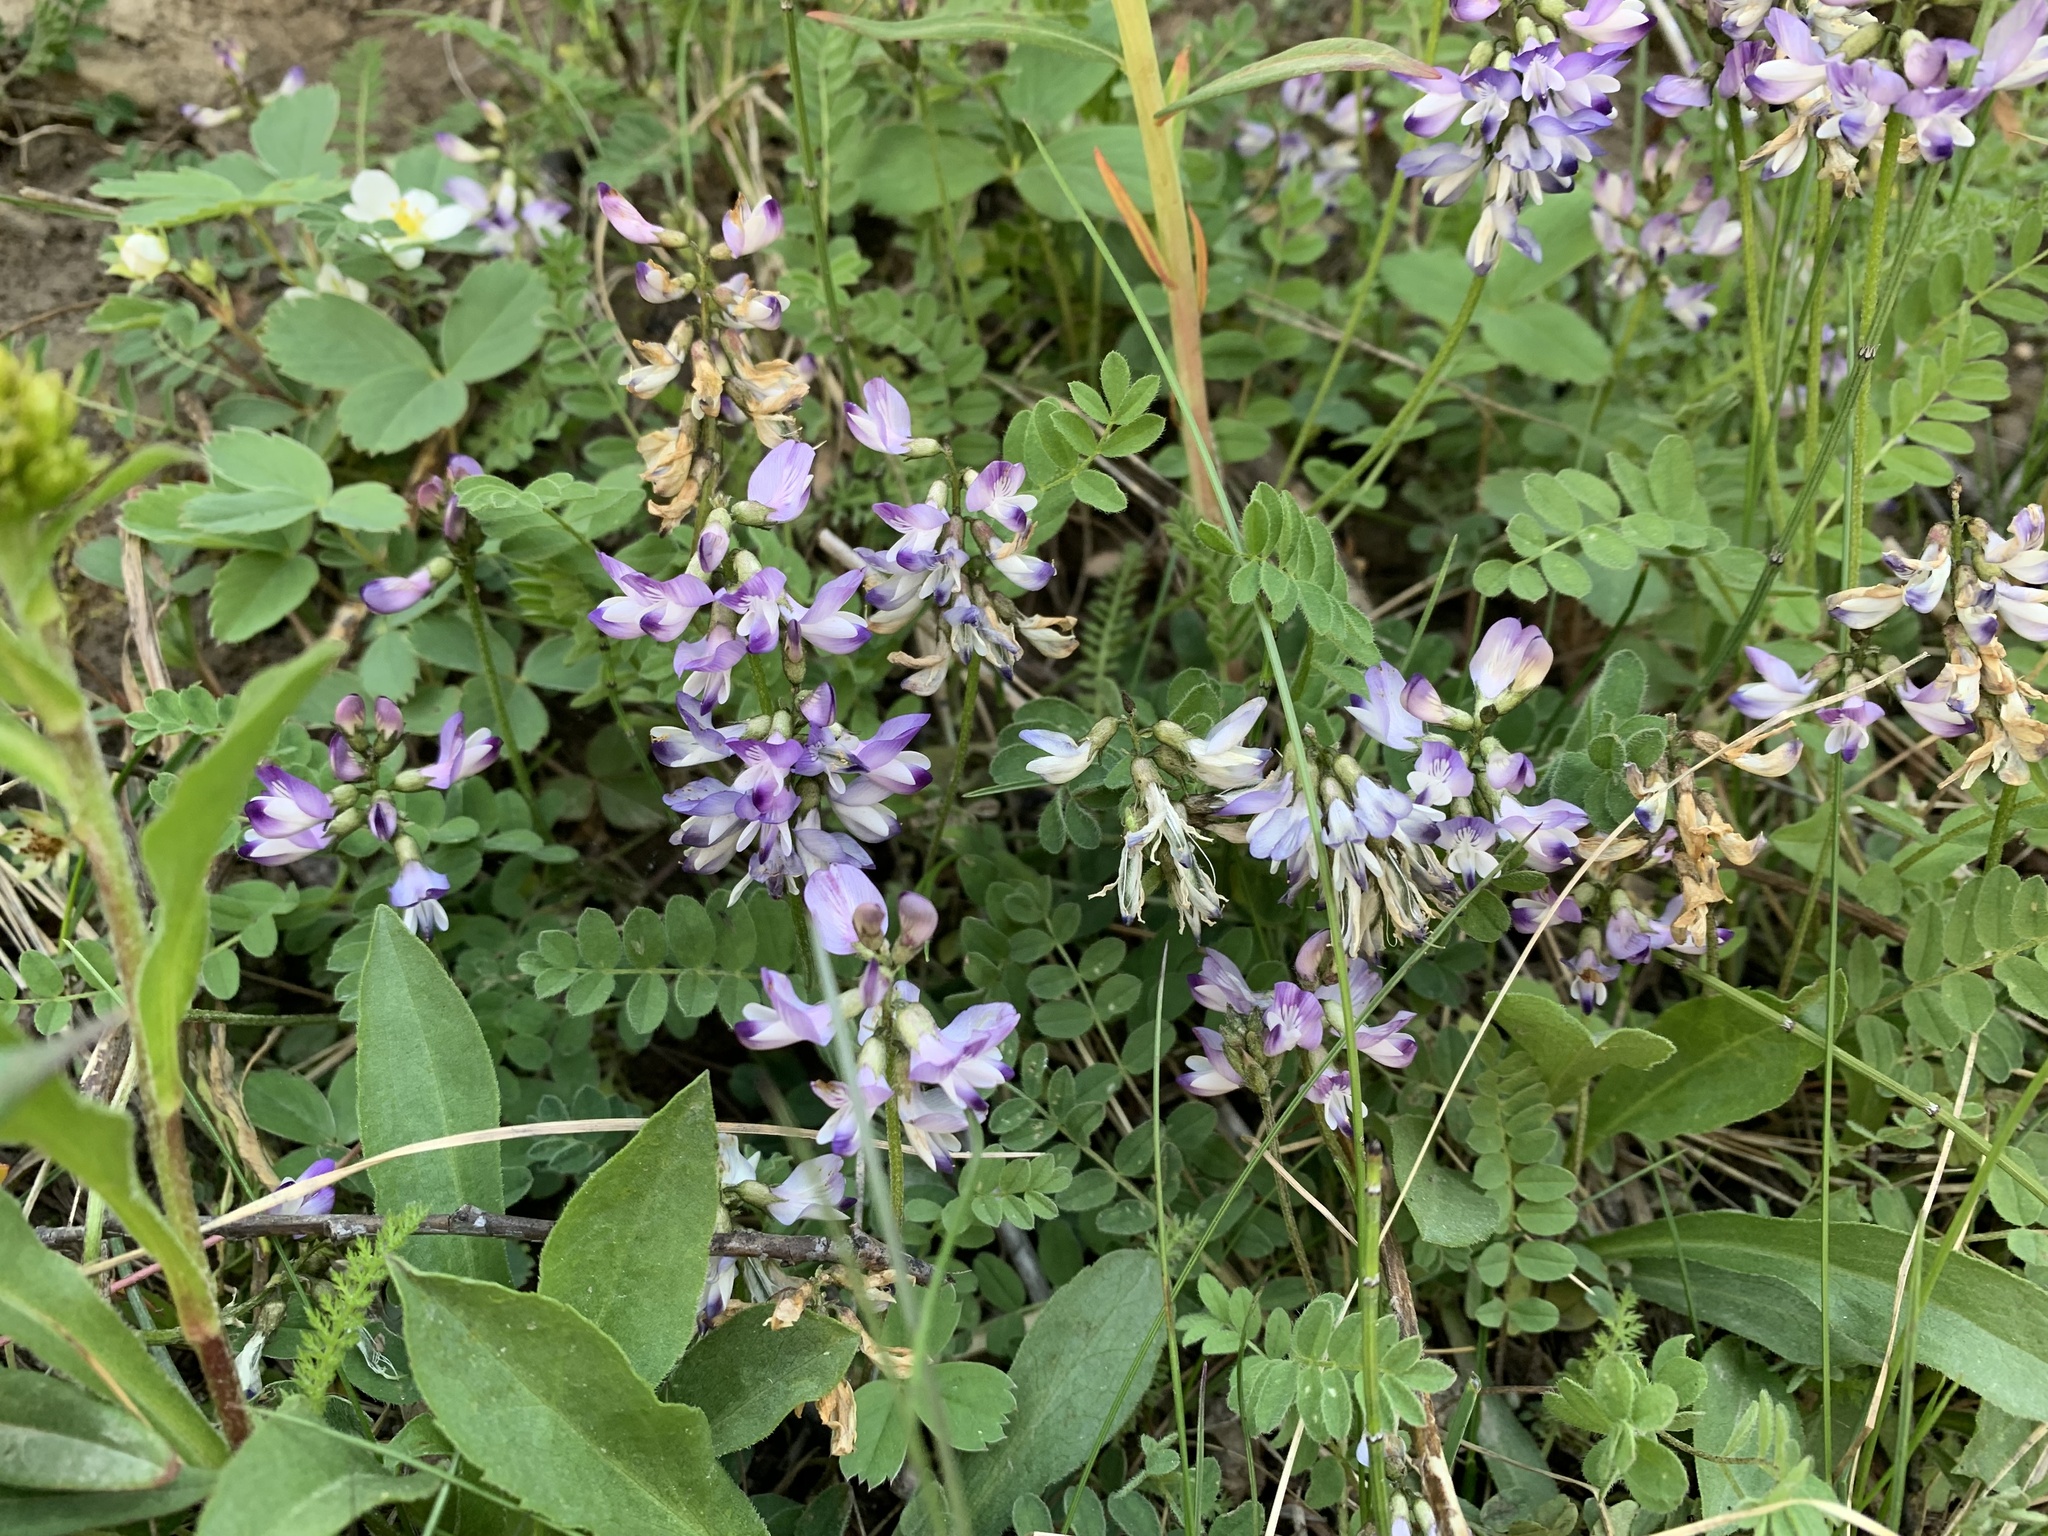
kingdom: Plantae
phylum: Tracheophyta
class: Magnoliopsida
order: Fabales
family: Fabaceae
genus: Astragalus
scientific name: Astragalus alpinus
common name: Alpine milk-vetch
